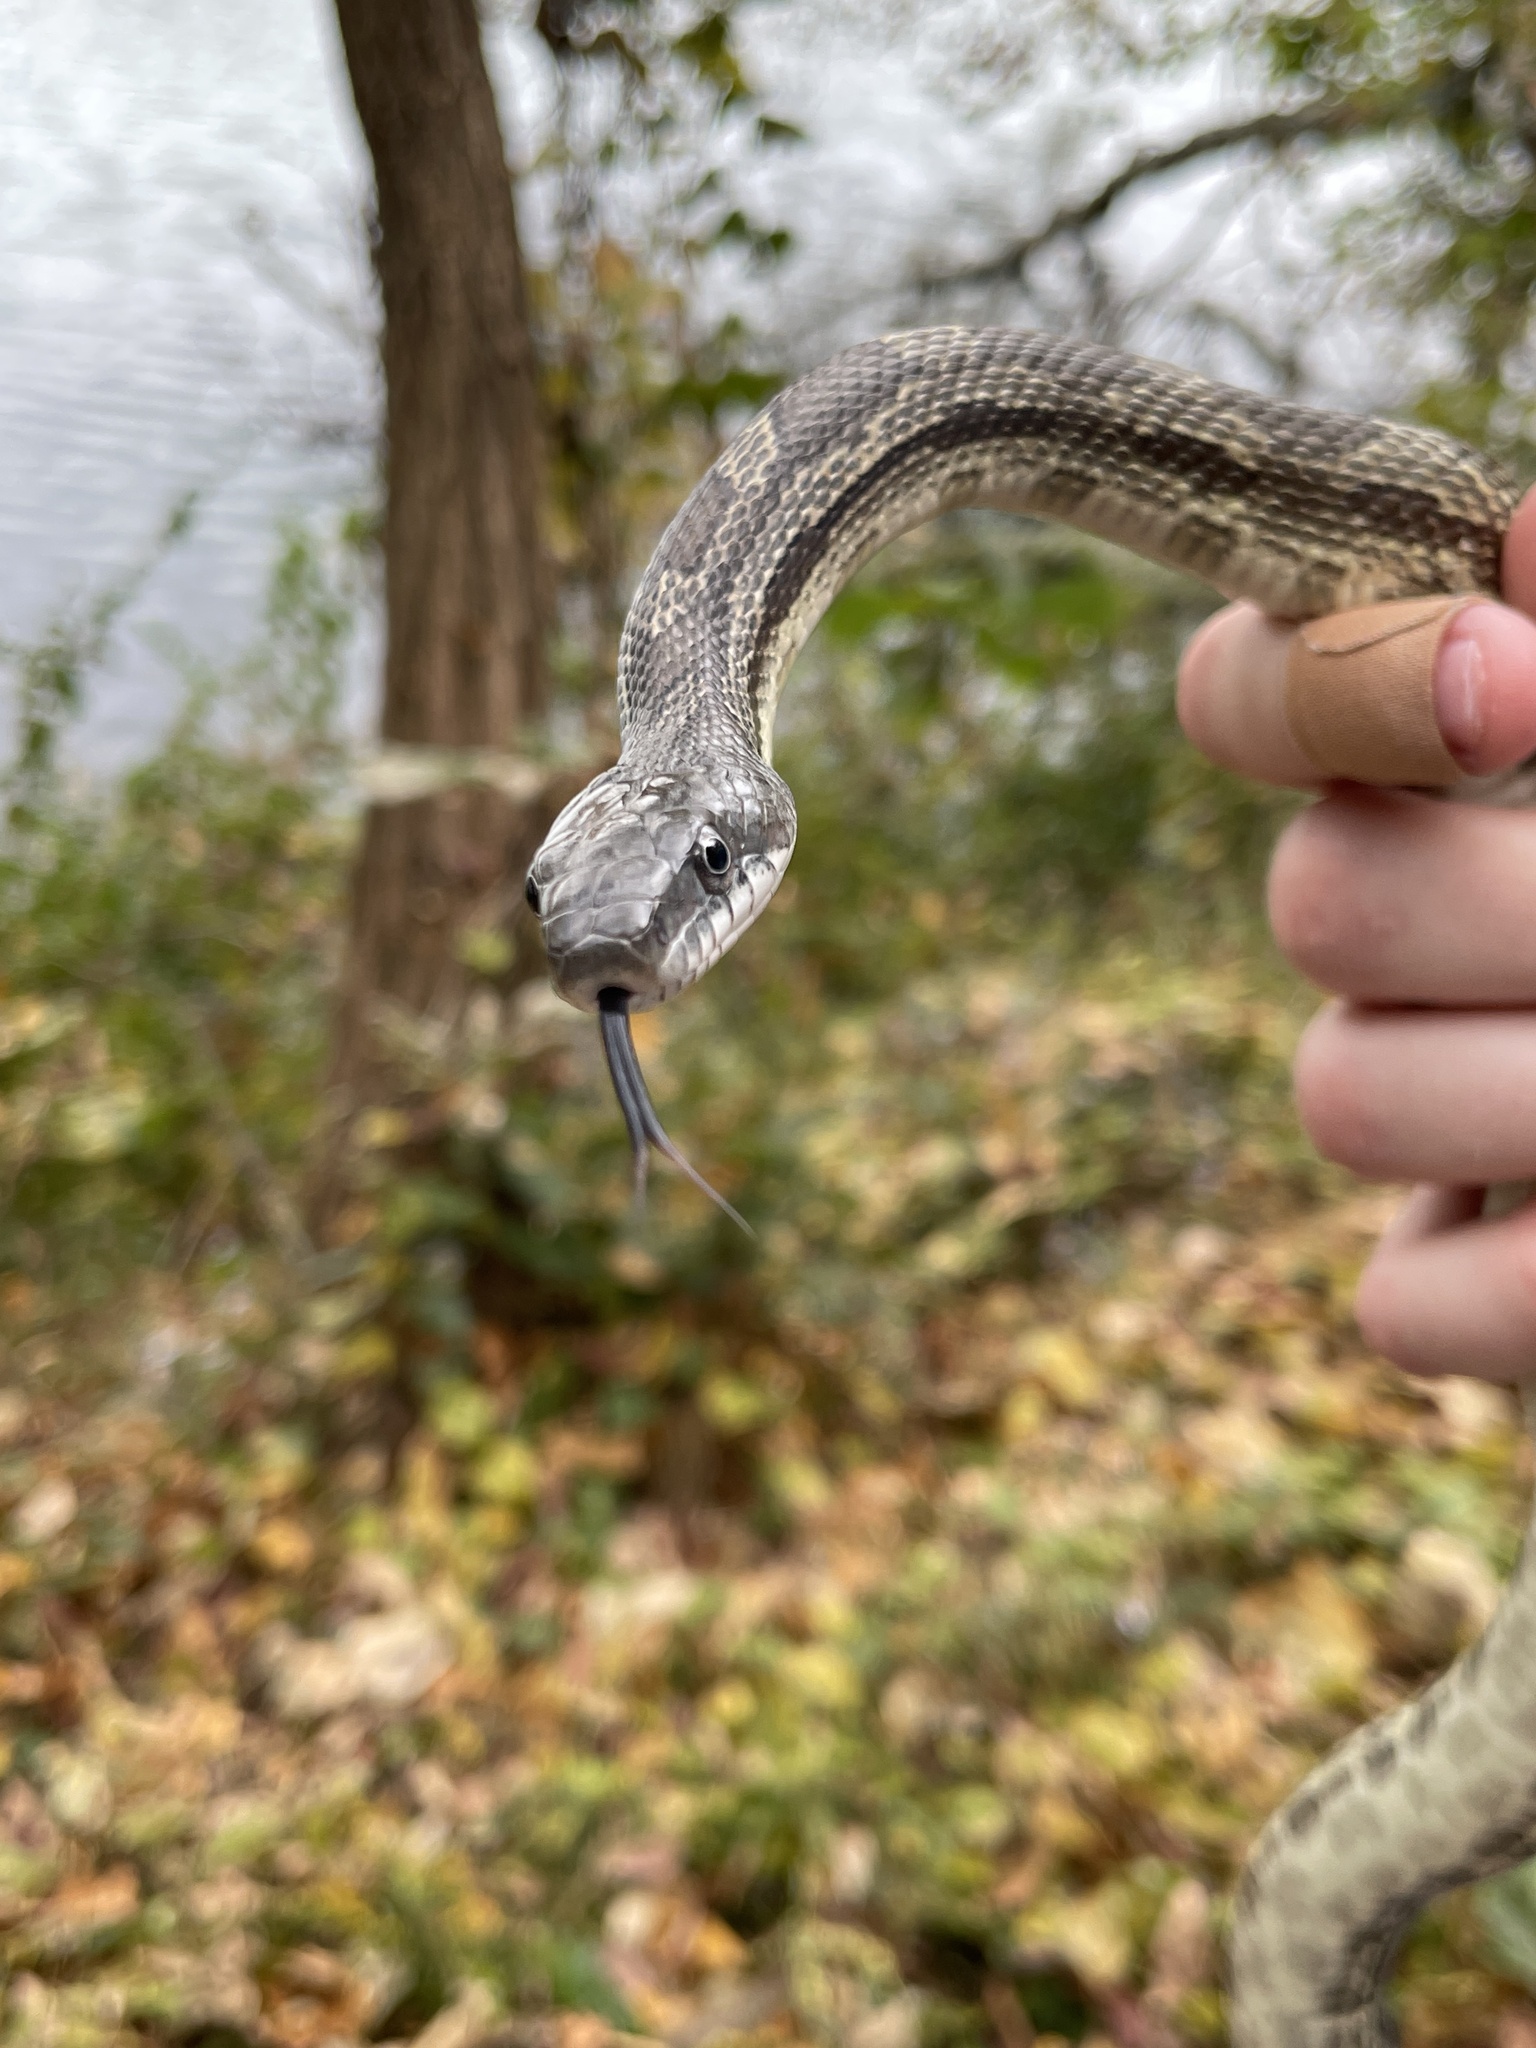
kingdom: Animalia
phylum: Chordata
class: Squamata
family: Colubridae
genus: Pantherophis
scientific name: Pantherophis spiloides
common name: Gray rat snake
